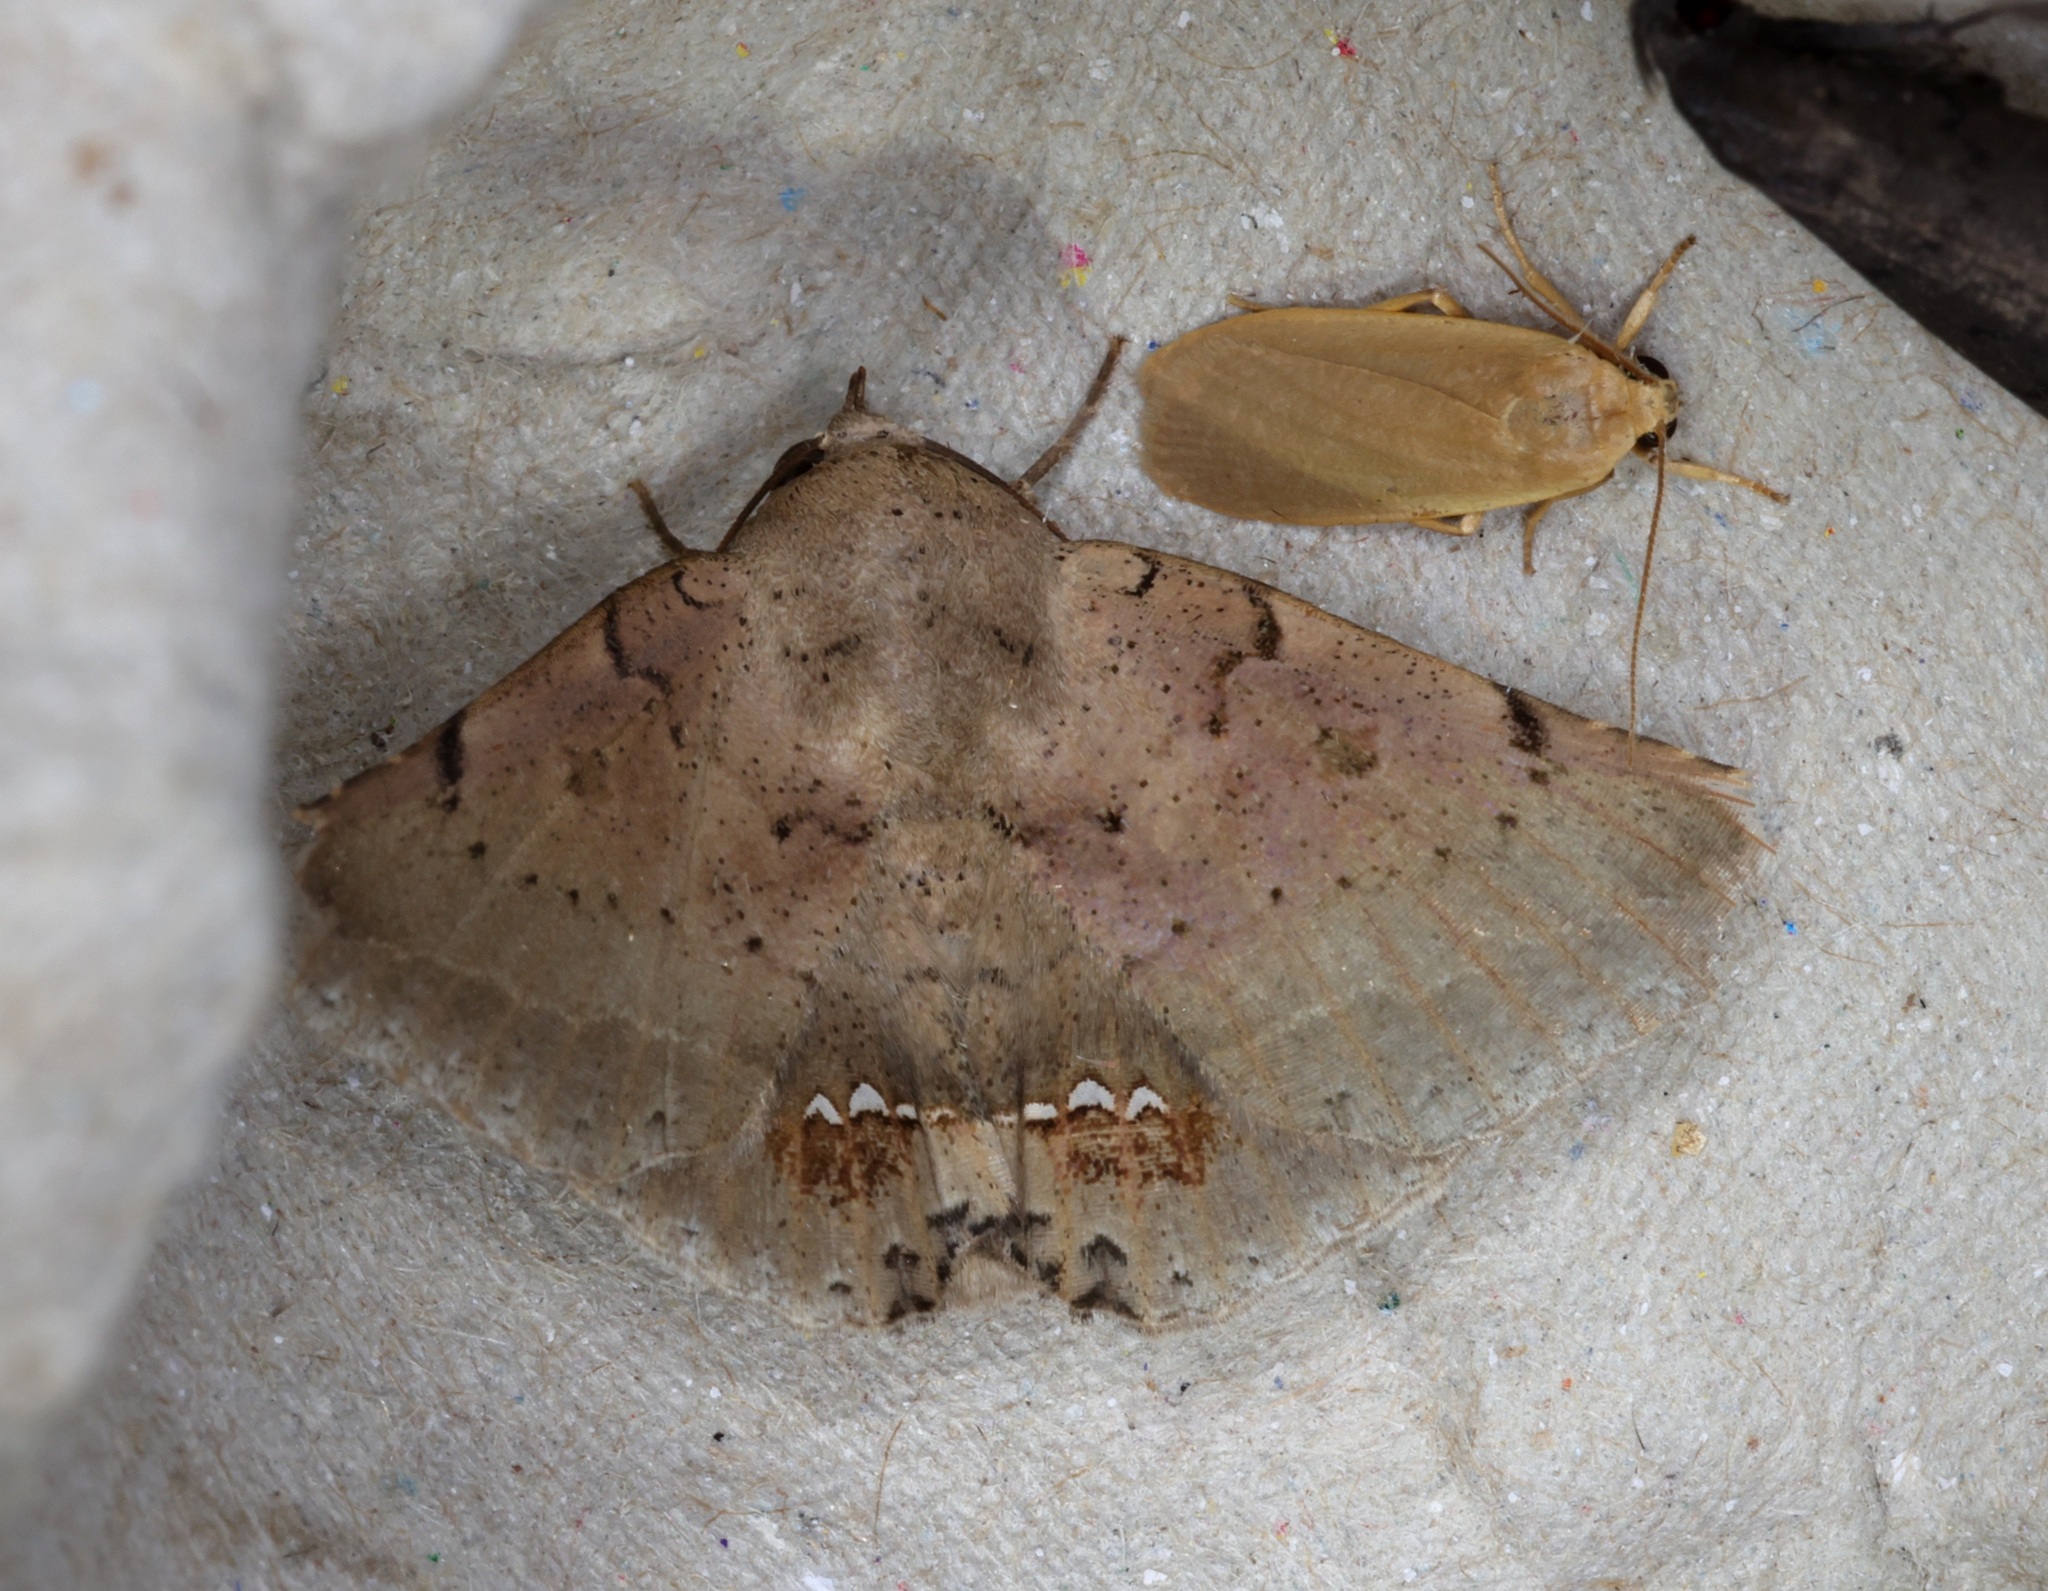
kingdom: Animalia
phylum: Arthropoda
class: Insecta
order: Lepidoptera
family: Erebidae
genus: Macaldenia
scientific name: Macaldenia palumba
